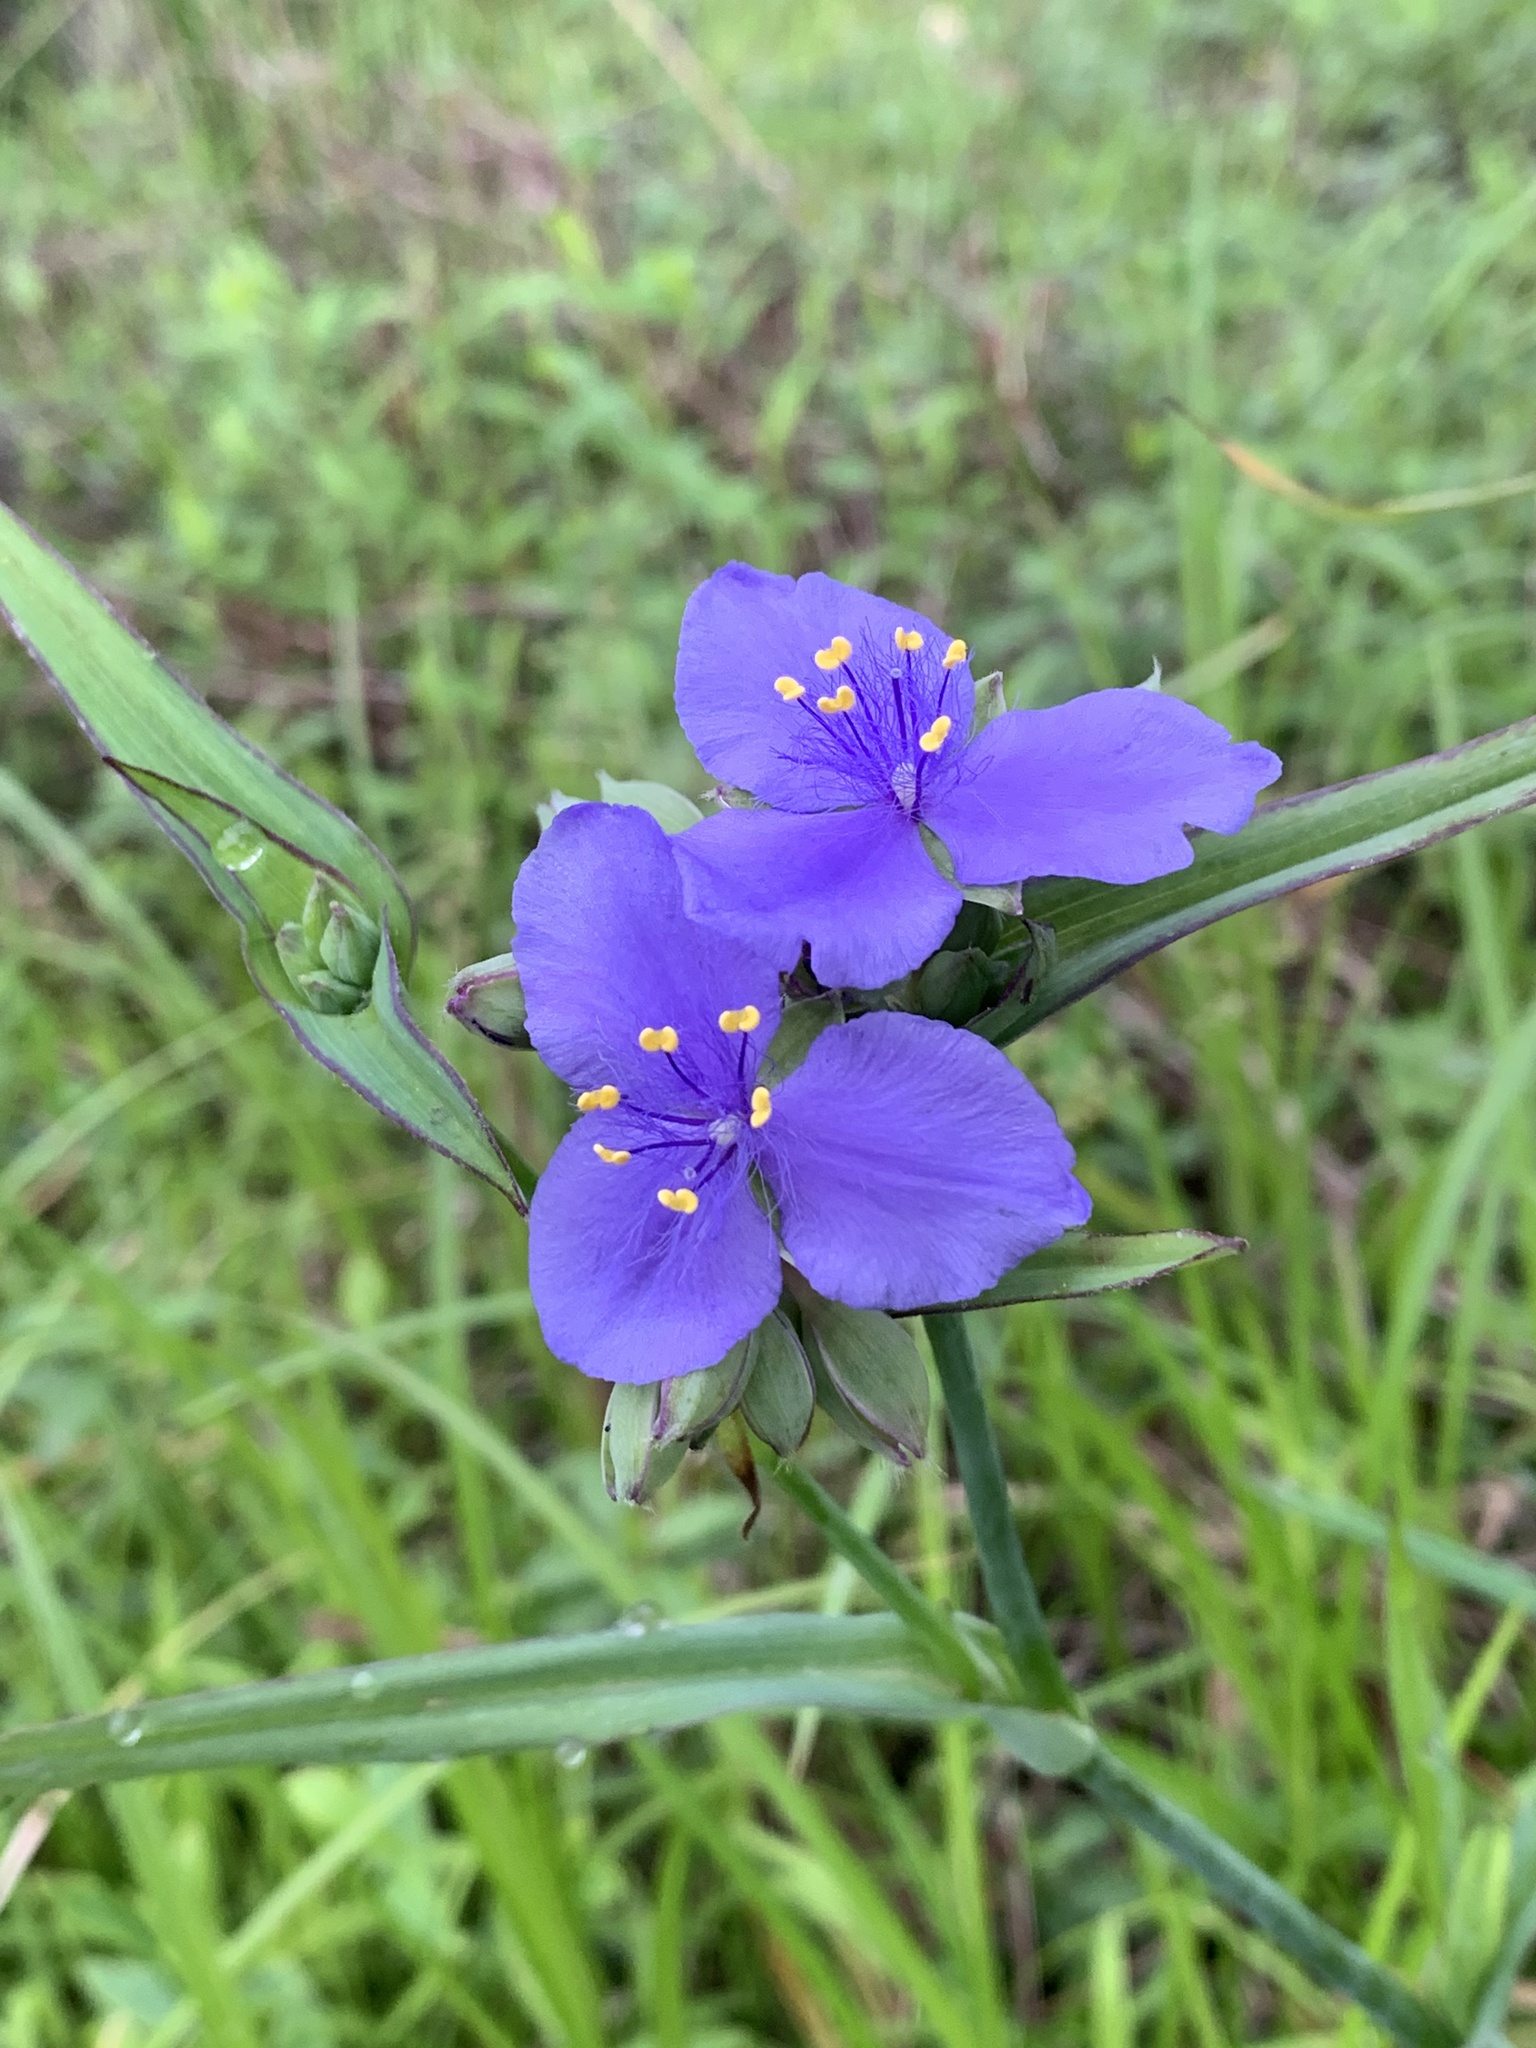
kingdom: Plantae
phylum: Tracheophyta
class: Liliopsida
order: Commelinales
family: Commelinaceae
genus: Tradescantia
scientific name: Tradescantia ohiensis
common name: Ohio spiderwort
